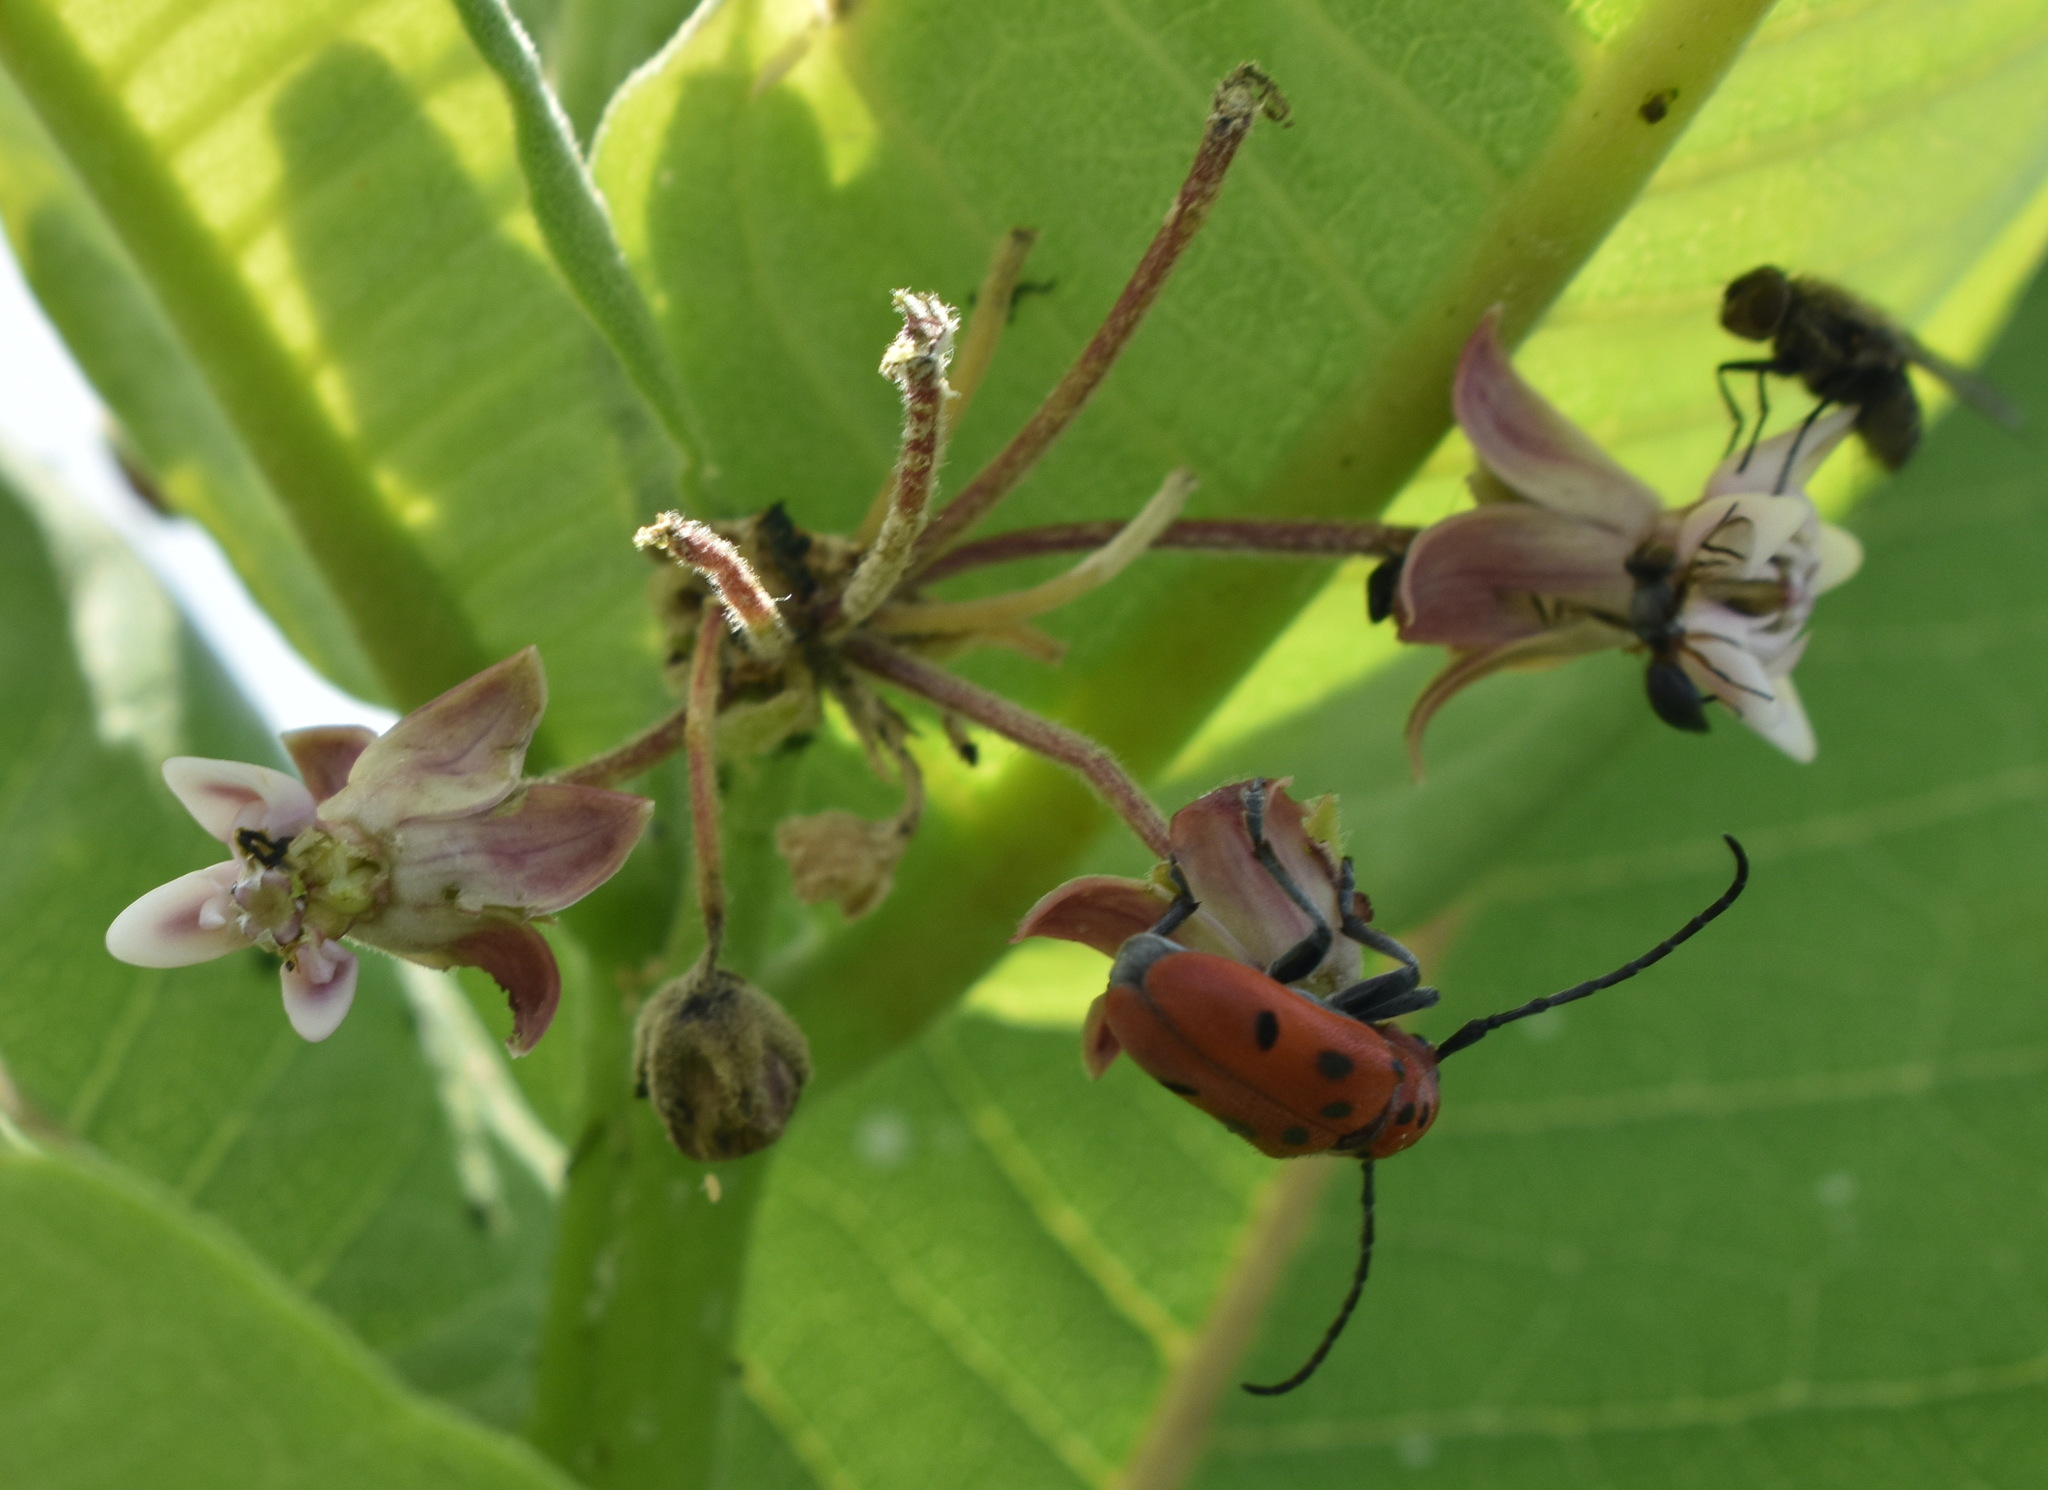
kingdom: Animalia
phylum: Arthropoda
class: Insecta
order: Coleoptera
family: Cerambycidae
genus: Tetraopes
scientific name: Tetraopes tetrophthalmus
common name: Red milkweed beetle
